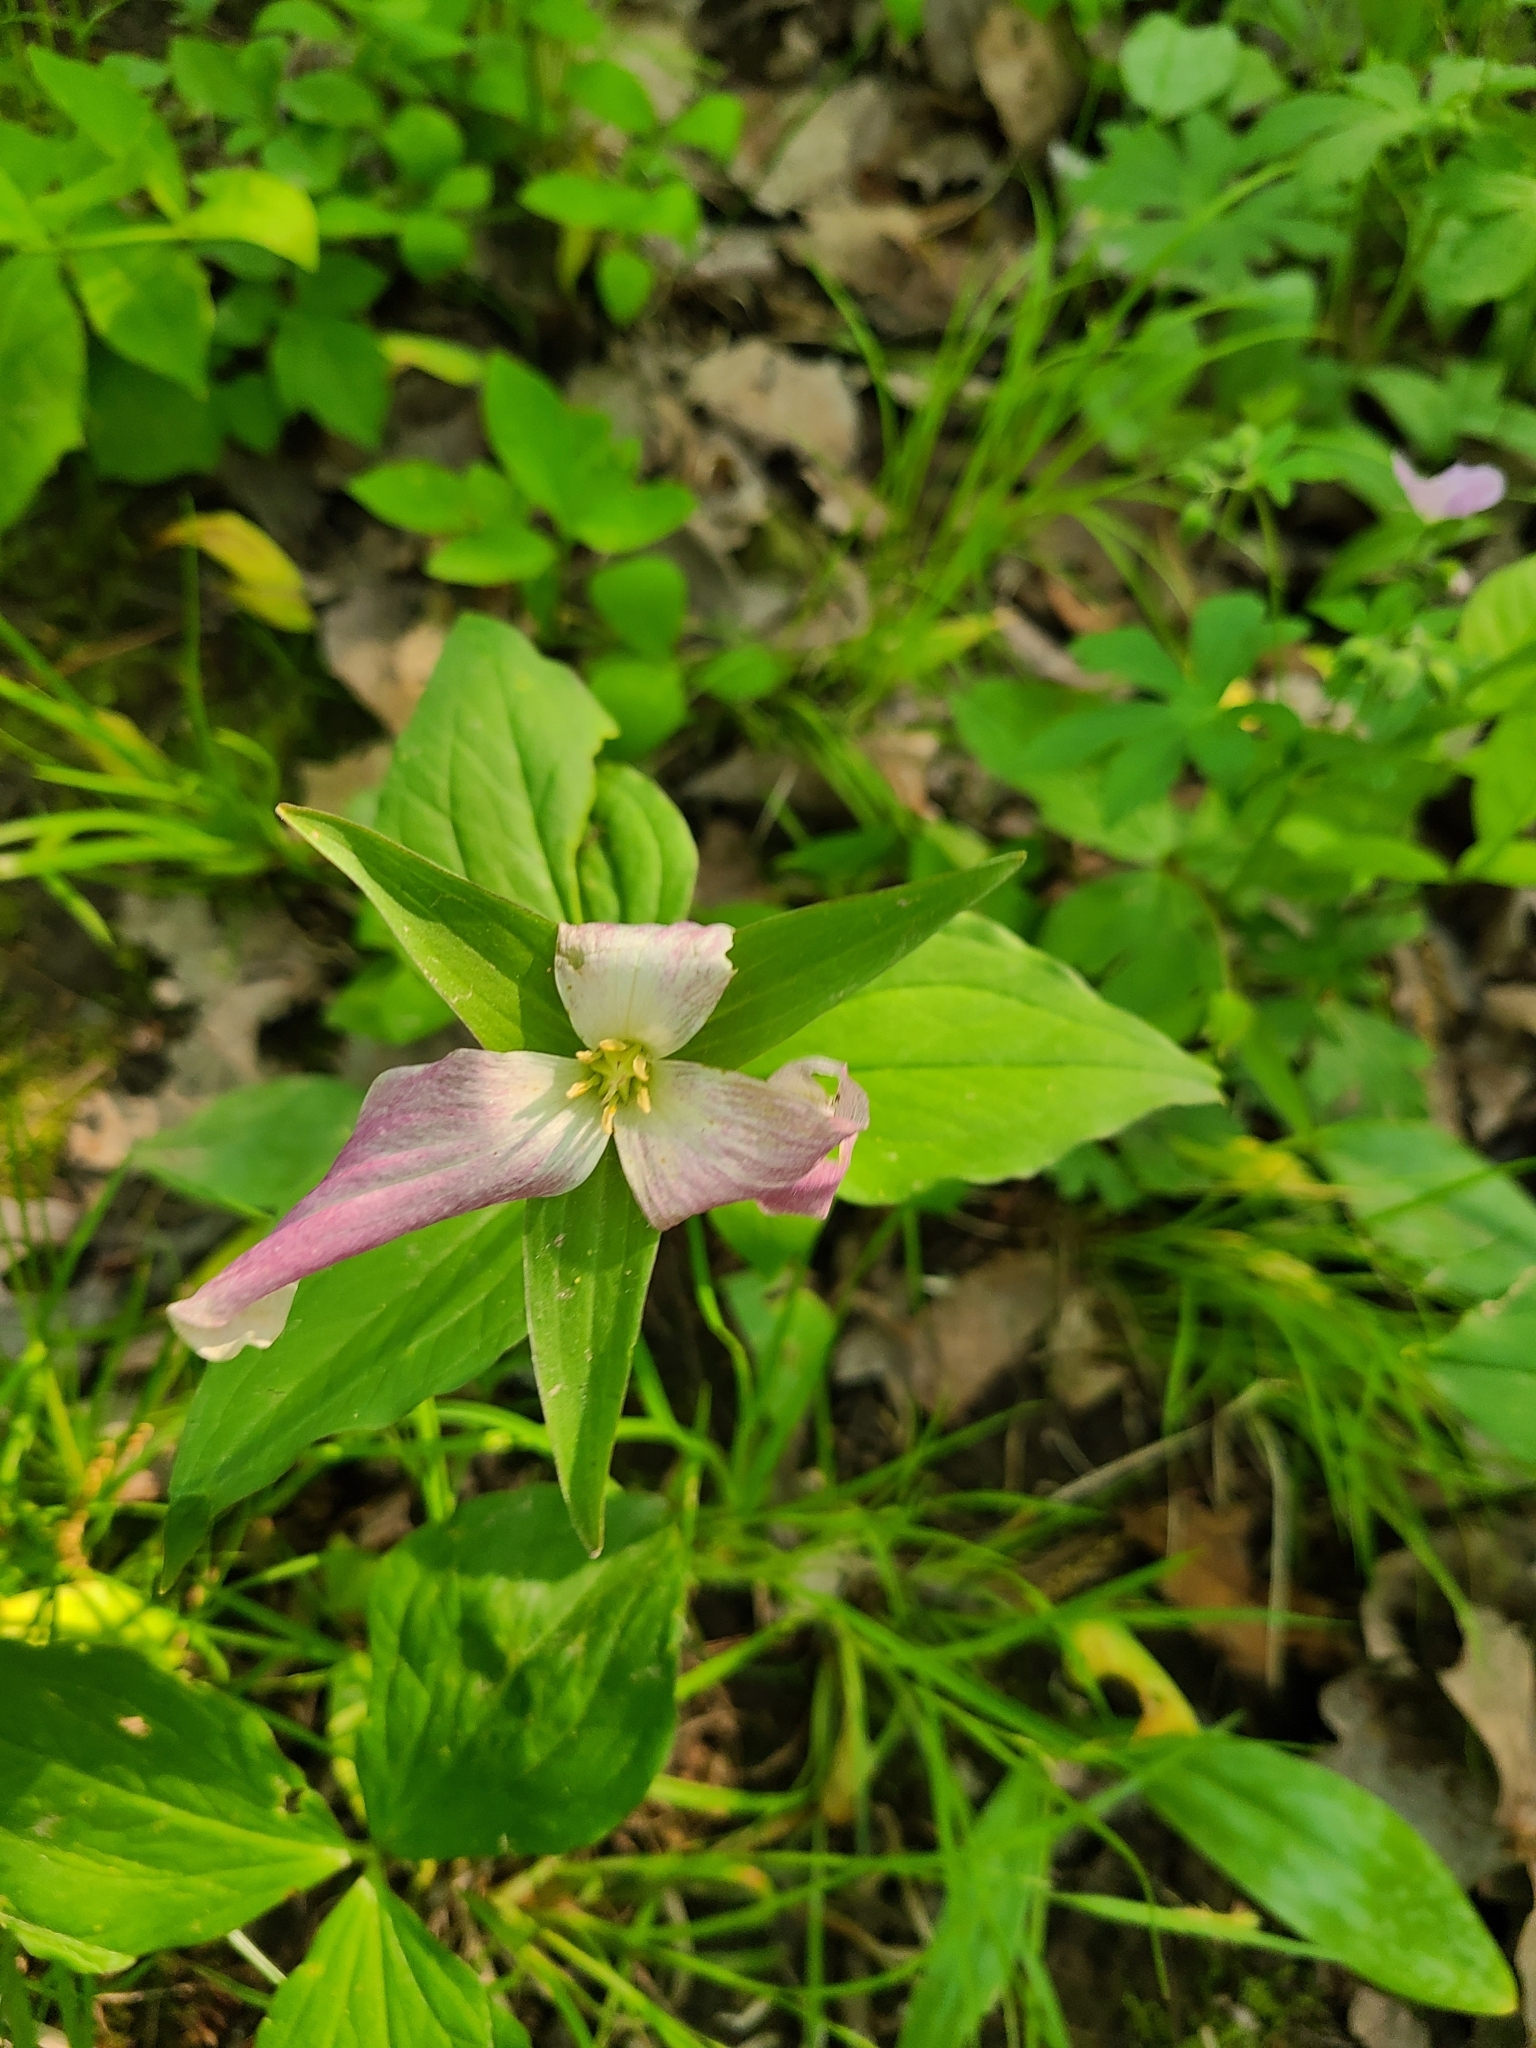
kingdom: Plantae
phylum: Tracheophyta
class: Liliopsida
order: Liliales
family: Melanthiaceae
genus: Trillium
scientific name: Trillium grandiflorum
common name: Great white trillium
